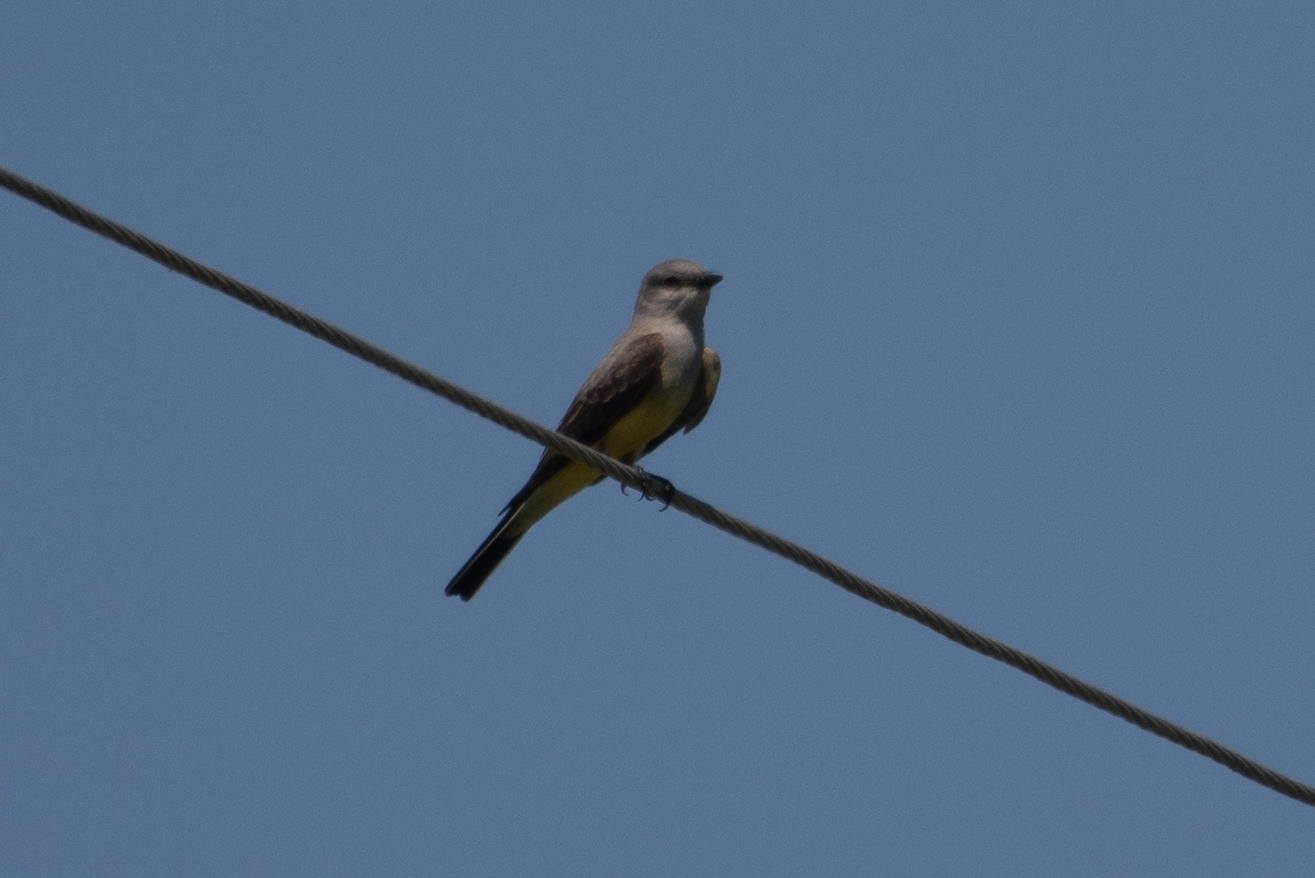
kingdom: Animalia
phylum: Chordata
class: Aves
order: Passeriformes
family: Tyrannidae
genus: Tyrannus
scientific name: Tyrannus verticalis
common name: Western kingbird
